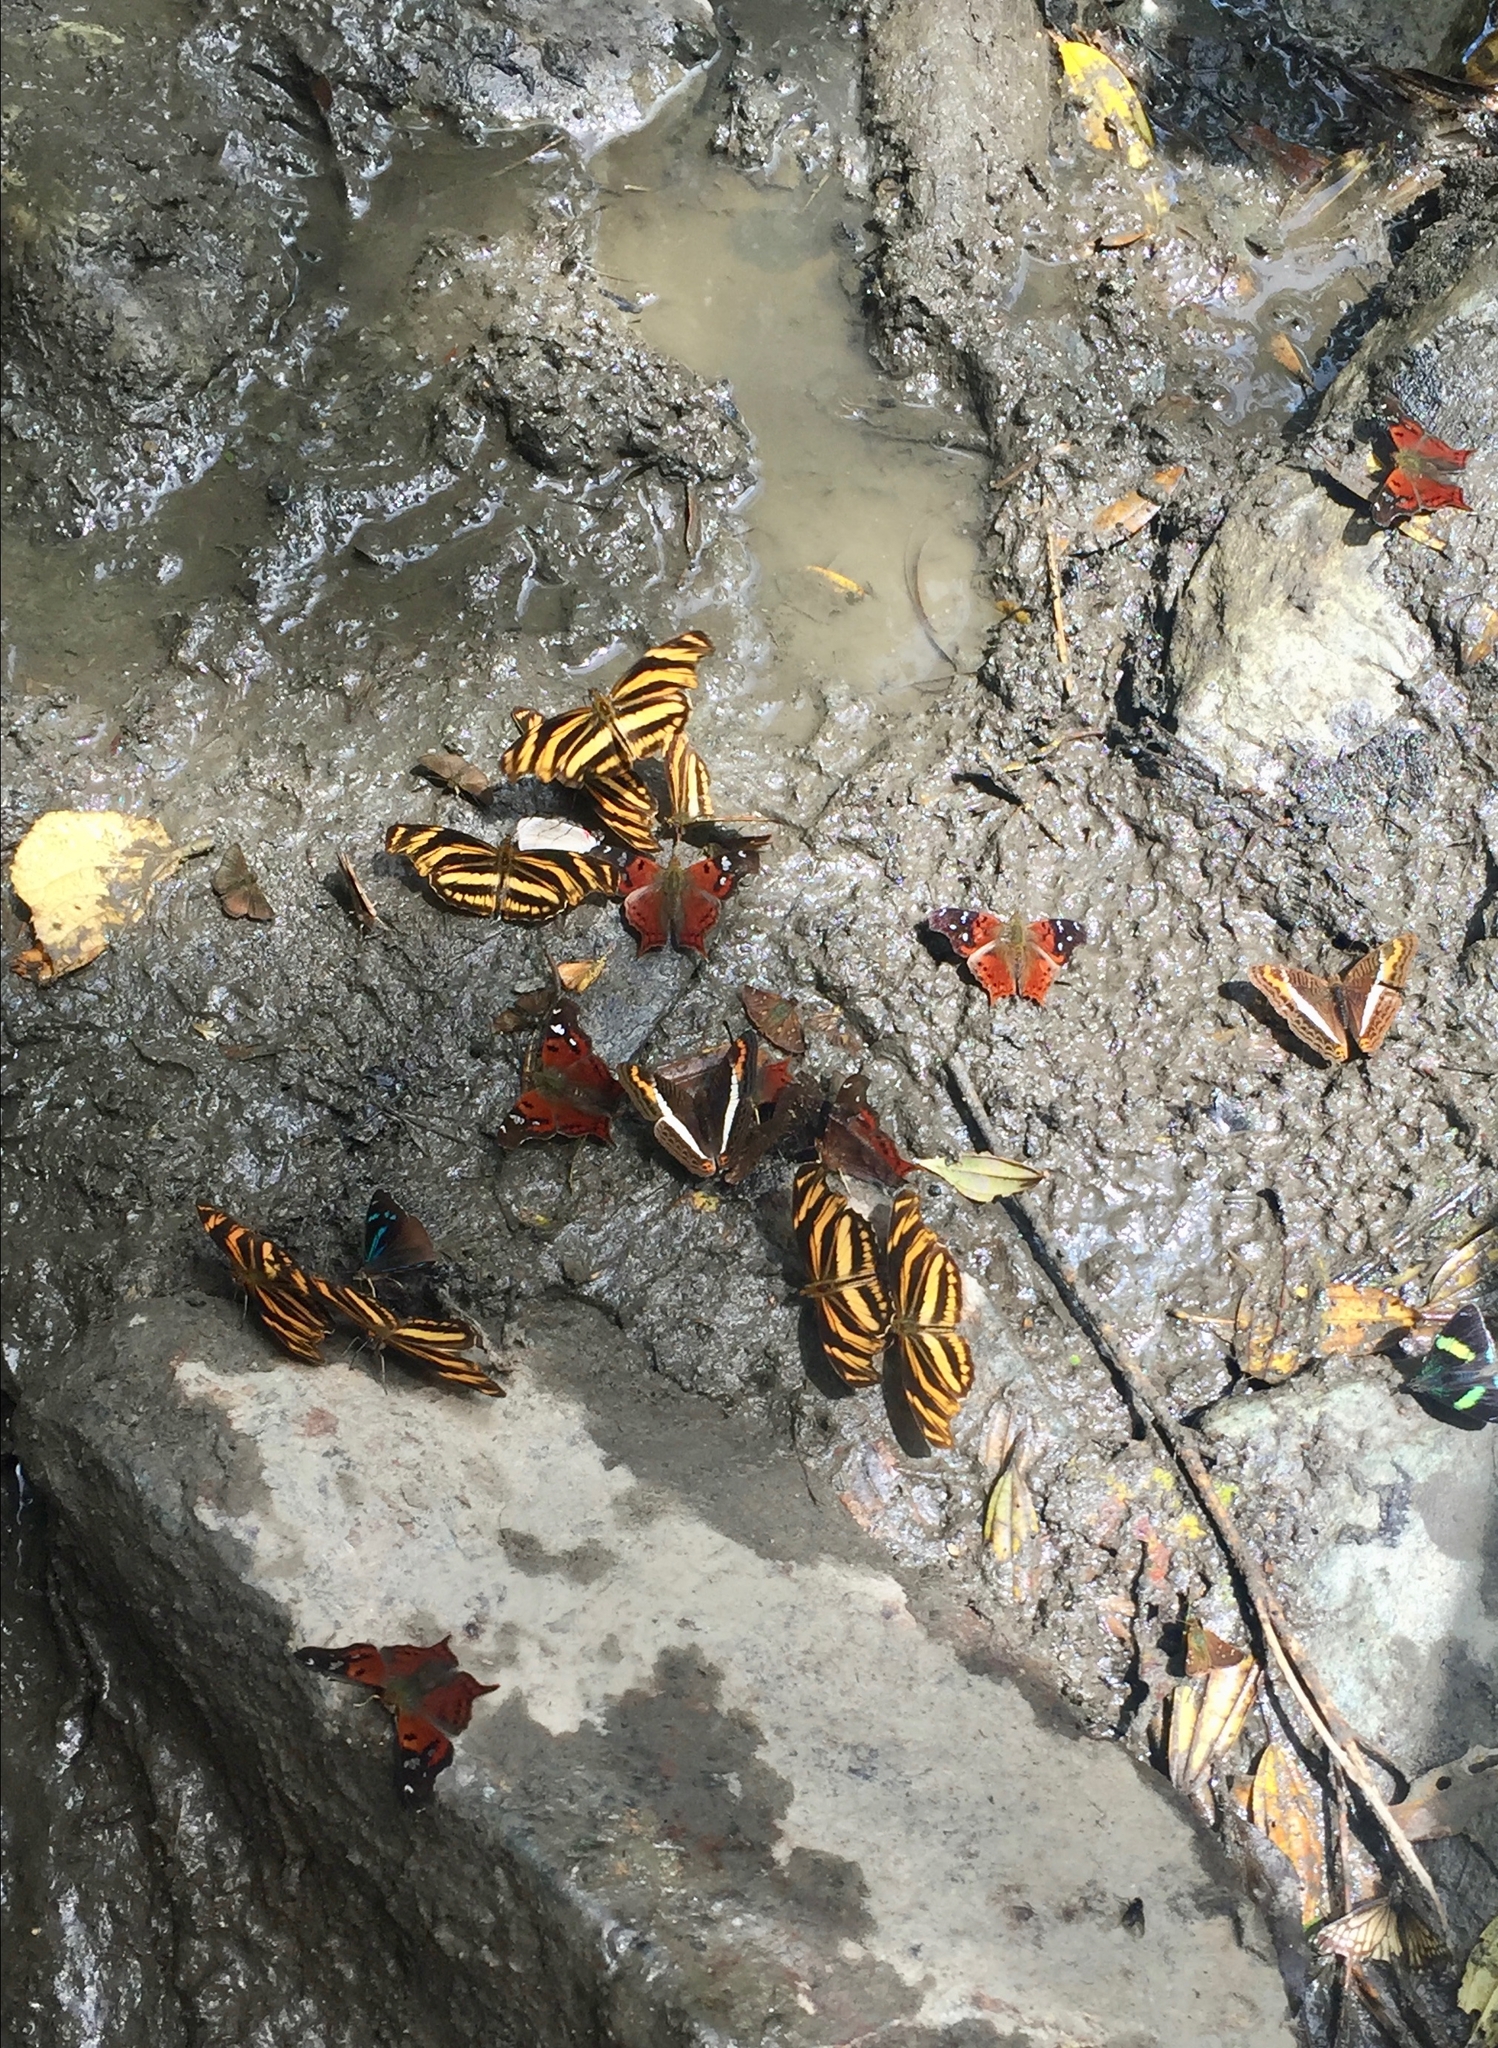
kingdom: Animalia
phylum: Arthropoda
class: Insecta
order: Lepidoptera
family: Nymphalidae
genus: Podotricha
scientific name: Podotricha judith
